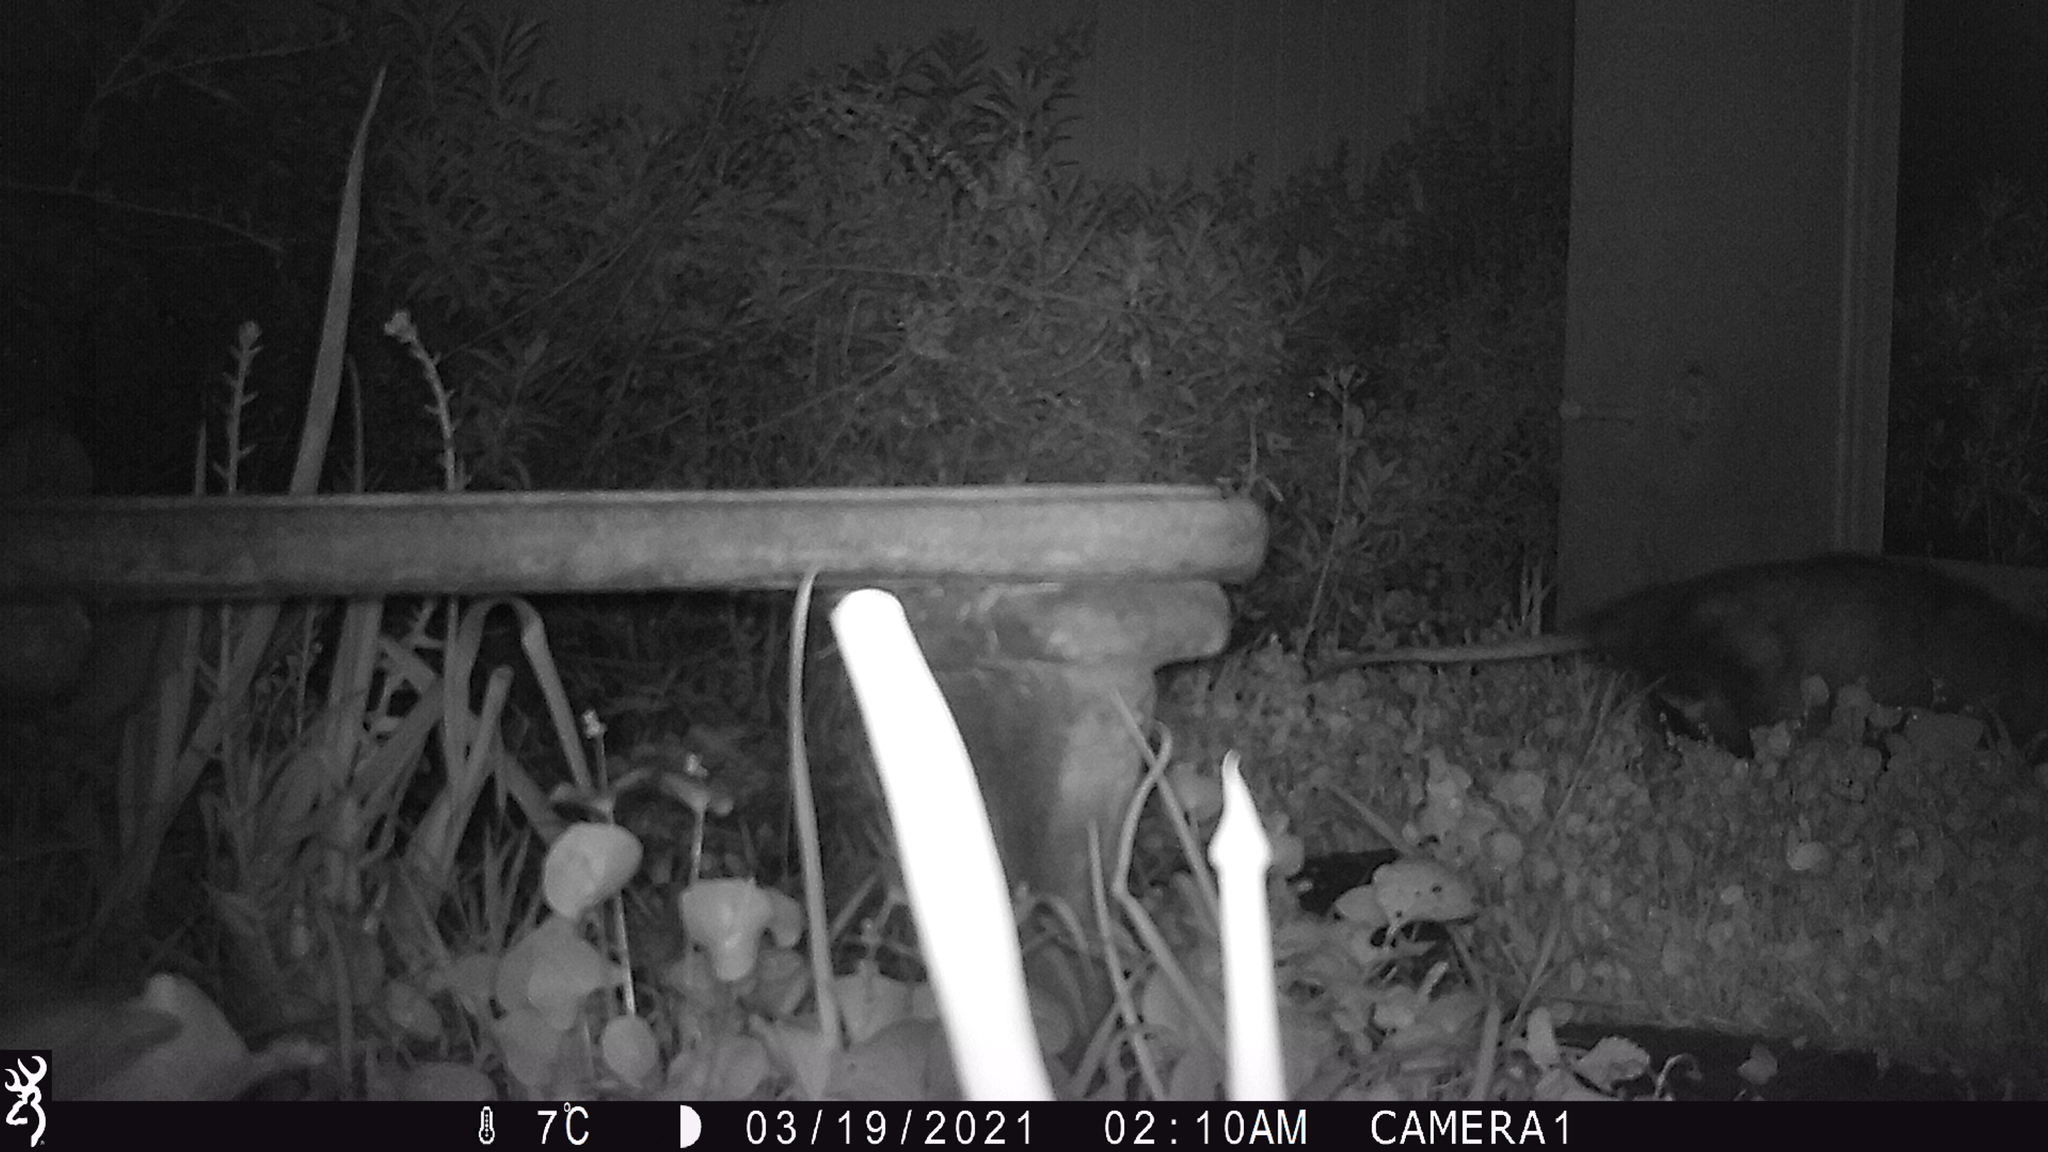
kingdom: Animalia
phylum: Chordata
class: Mammalia
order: Didelphimorphia
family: Didelphidae
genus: Didelphis
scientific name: Didelphis virginiana
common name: Virginia opossum
